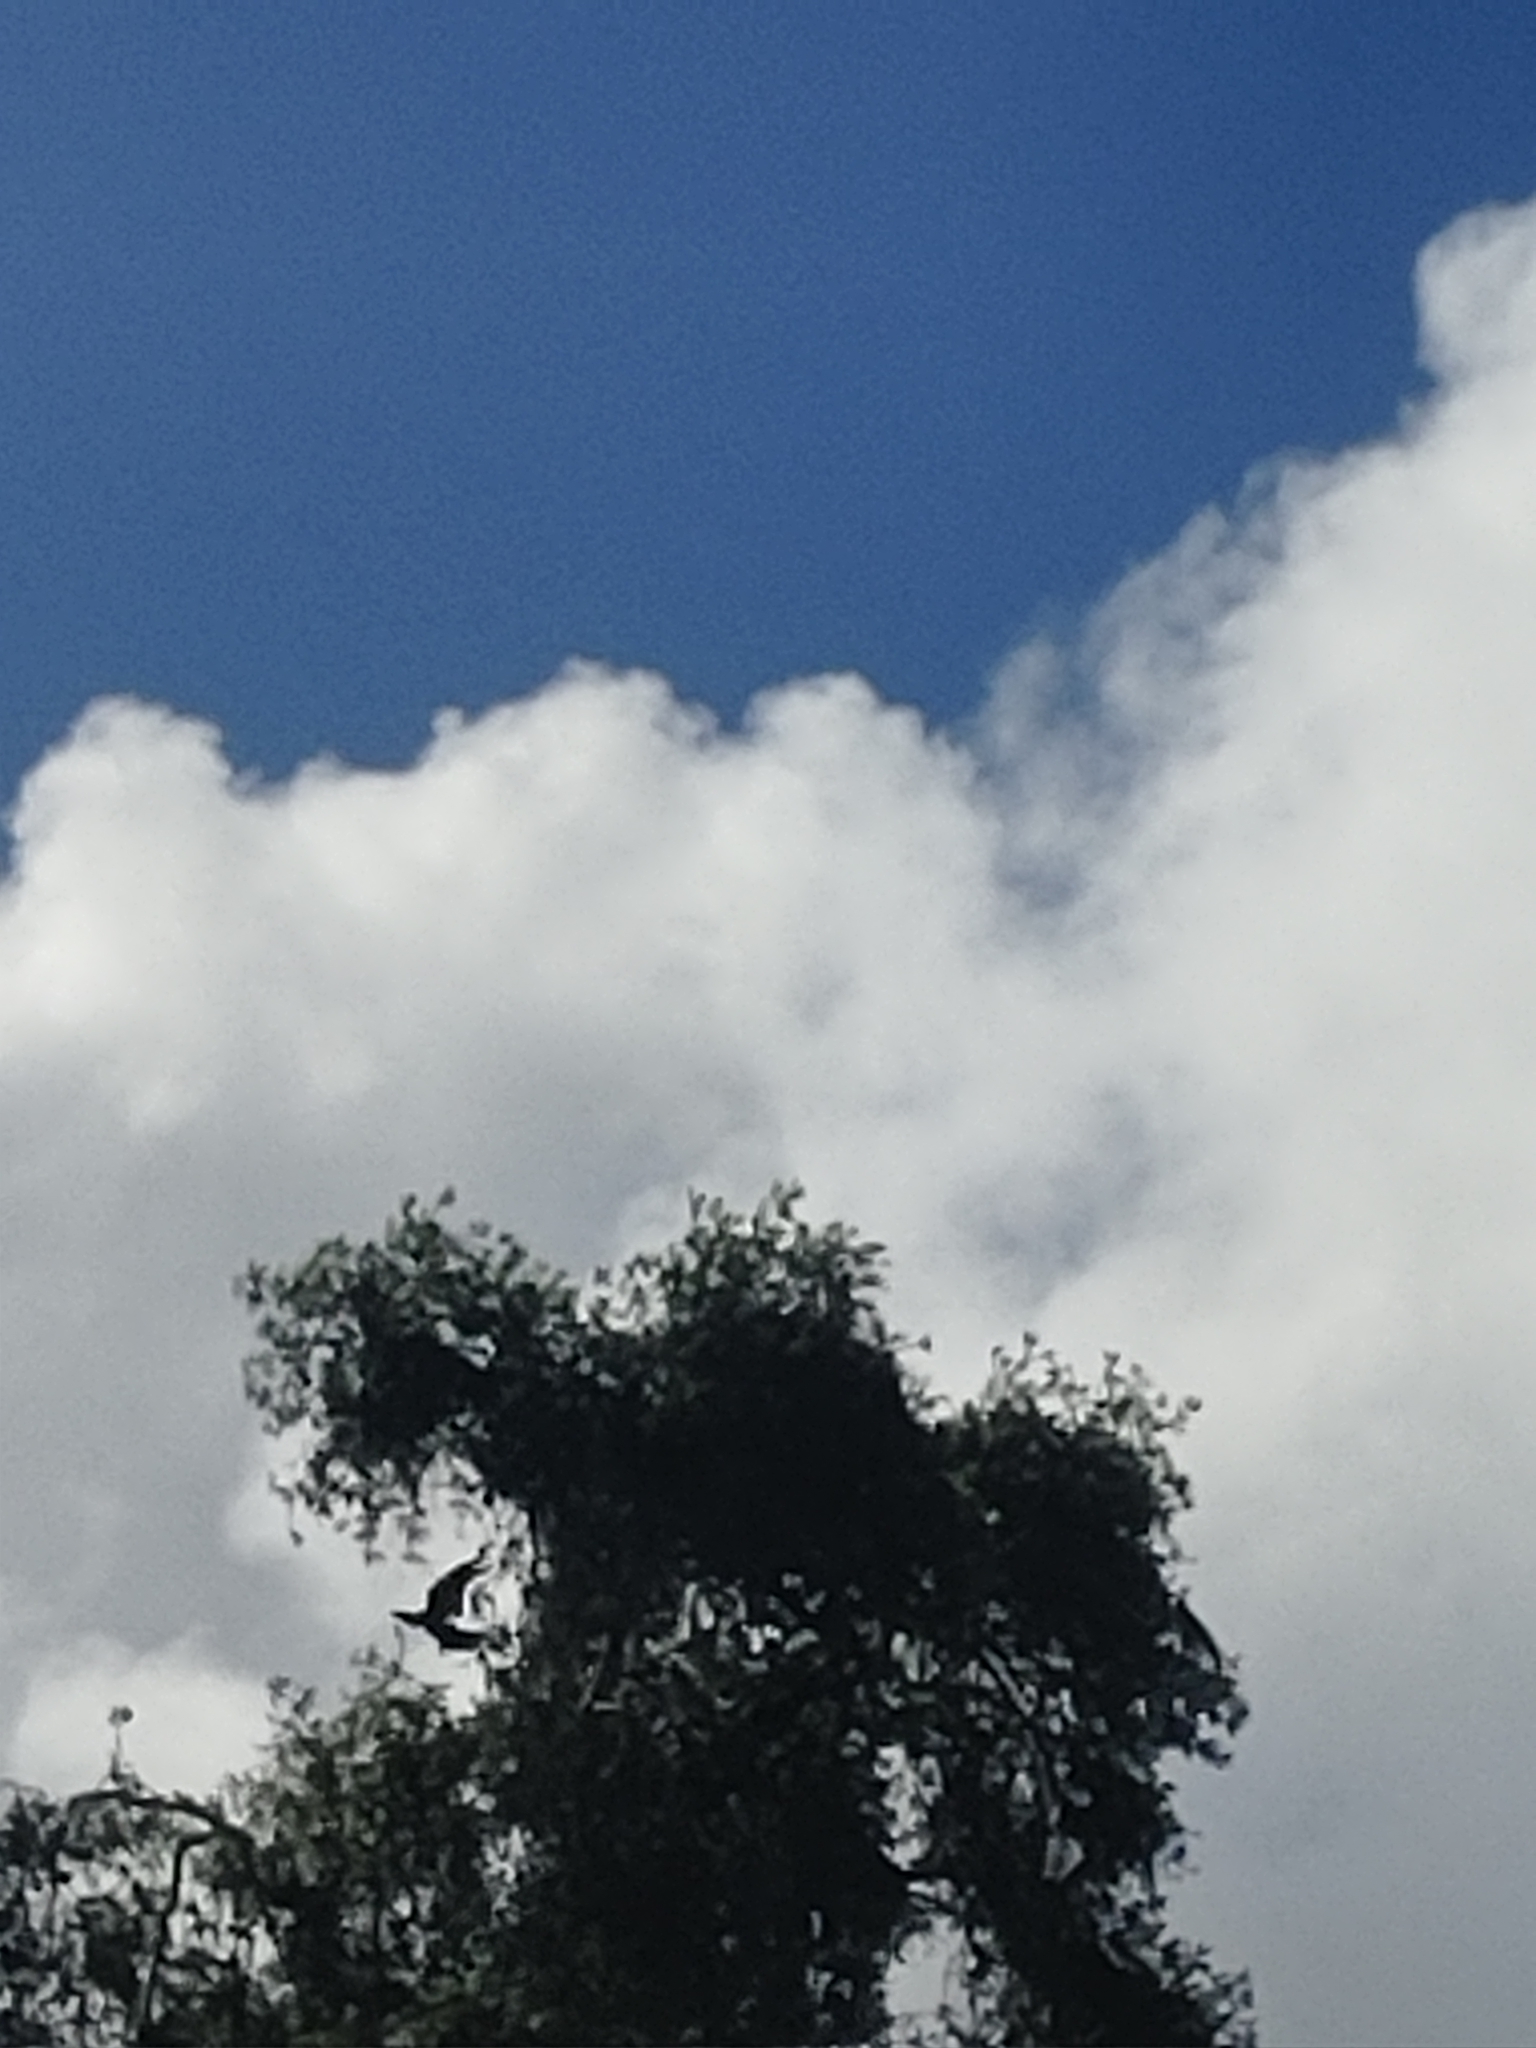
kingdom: Animalia
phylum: Chordata
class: Aves
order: Passeriformes
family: Corvidae
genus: Corvus
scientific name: Corvus
